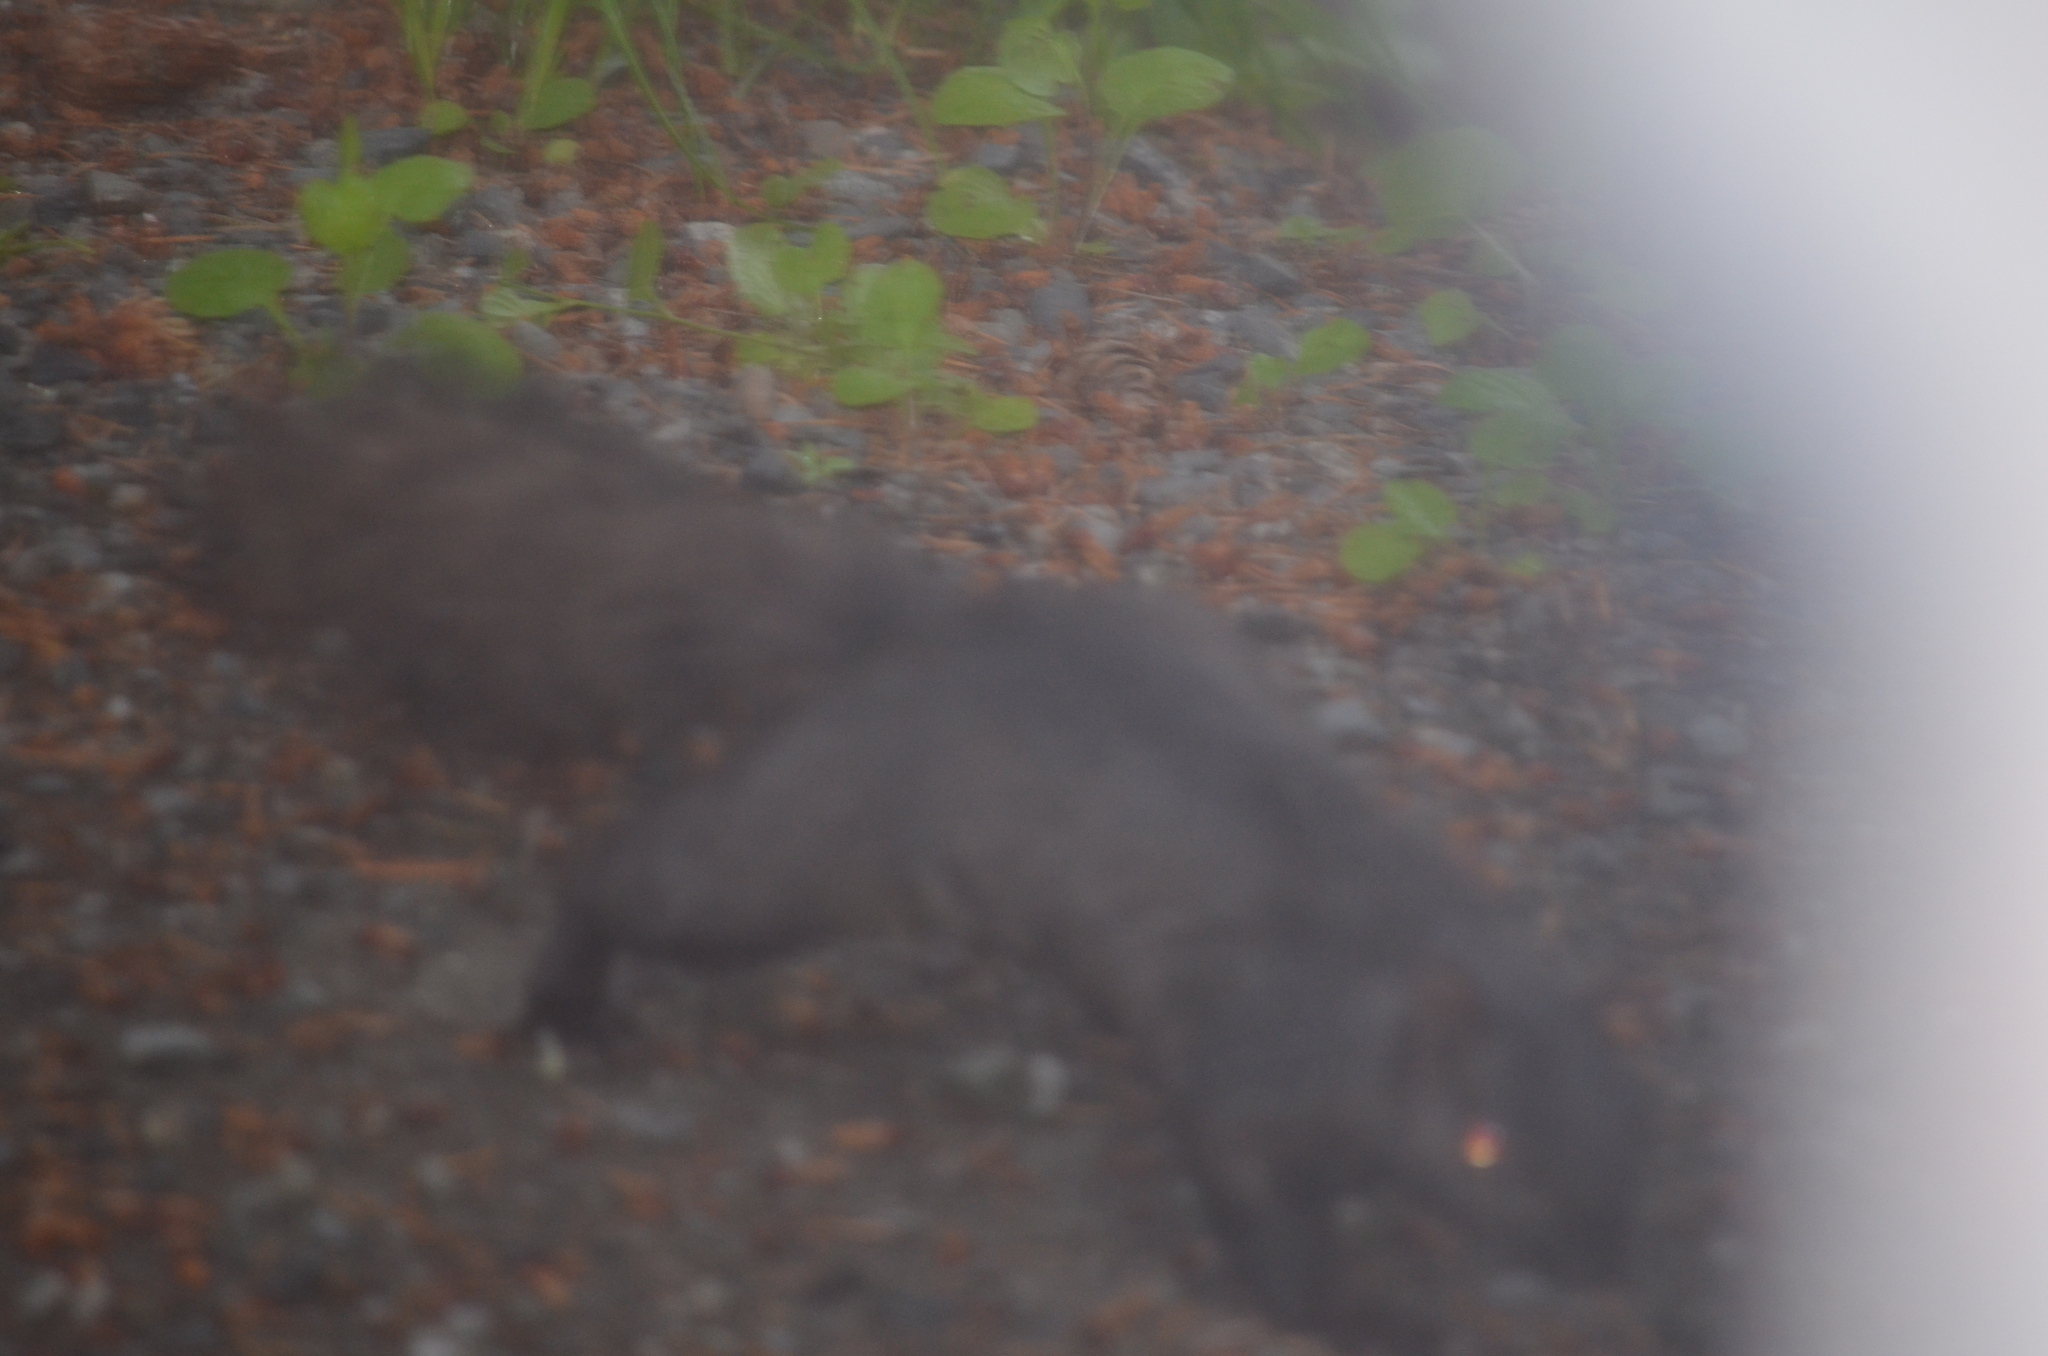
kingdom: Animalia
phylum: Chordata
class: Mammalia
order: Rodentia
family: Sciuridae
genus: Sciurus
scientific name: Sciurus carolinensis
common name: Eastern gray squirrel
